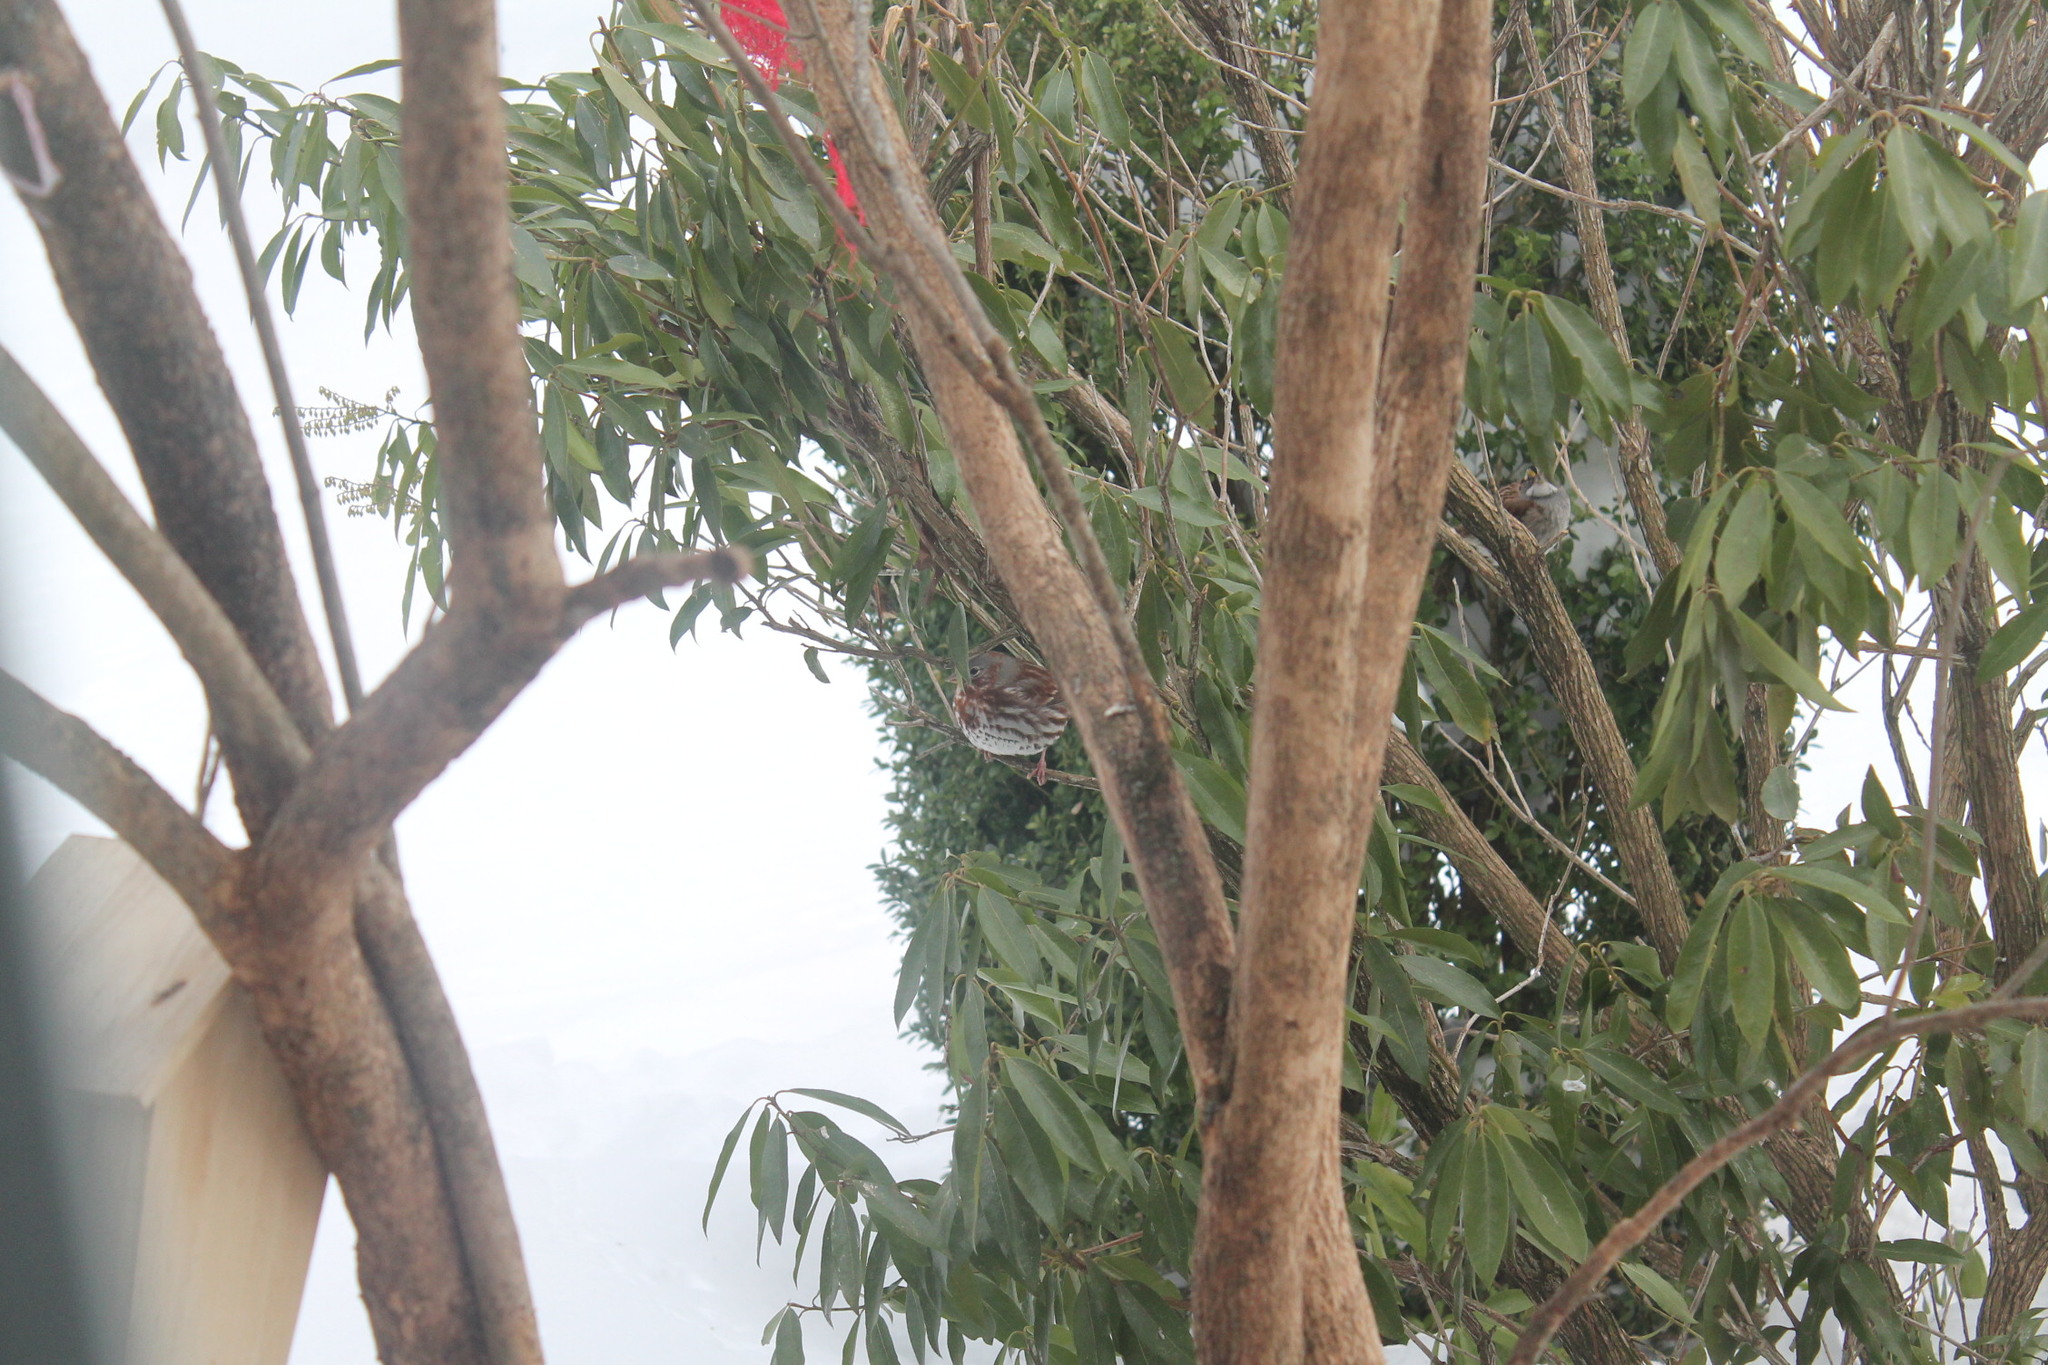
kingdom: Animalia
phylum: Chordata
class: Aves
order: Passeriformes
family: Passerellidae
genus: Passerella
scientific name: Passerella iliaca
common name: Fox sparrow
